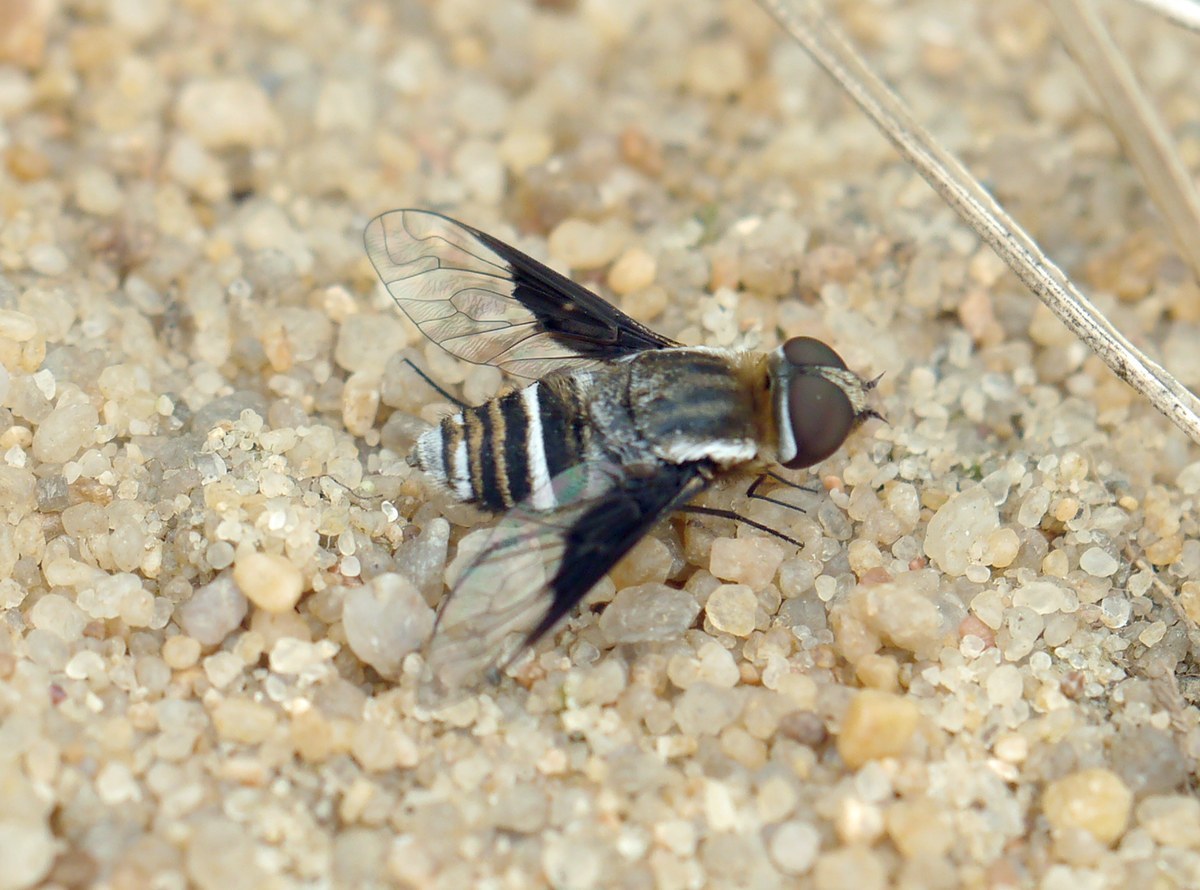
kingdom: Animalia
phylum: Arthropoda
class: Insecta
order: Diptera
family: Bombyliidae
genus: Exhyalanthrax
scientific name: Exhyalanthrax afer
